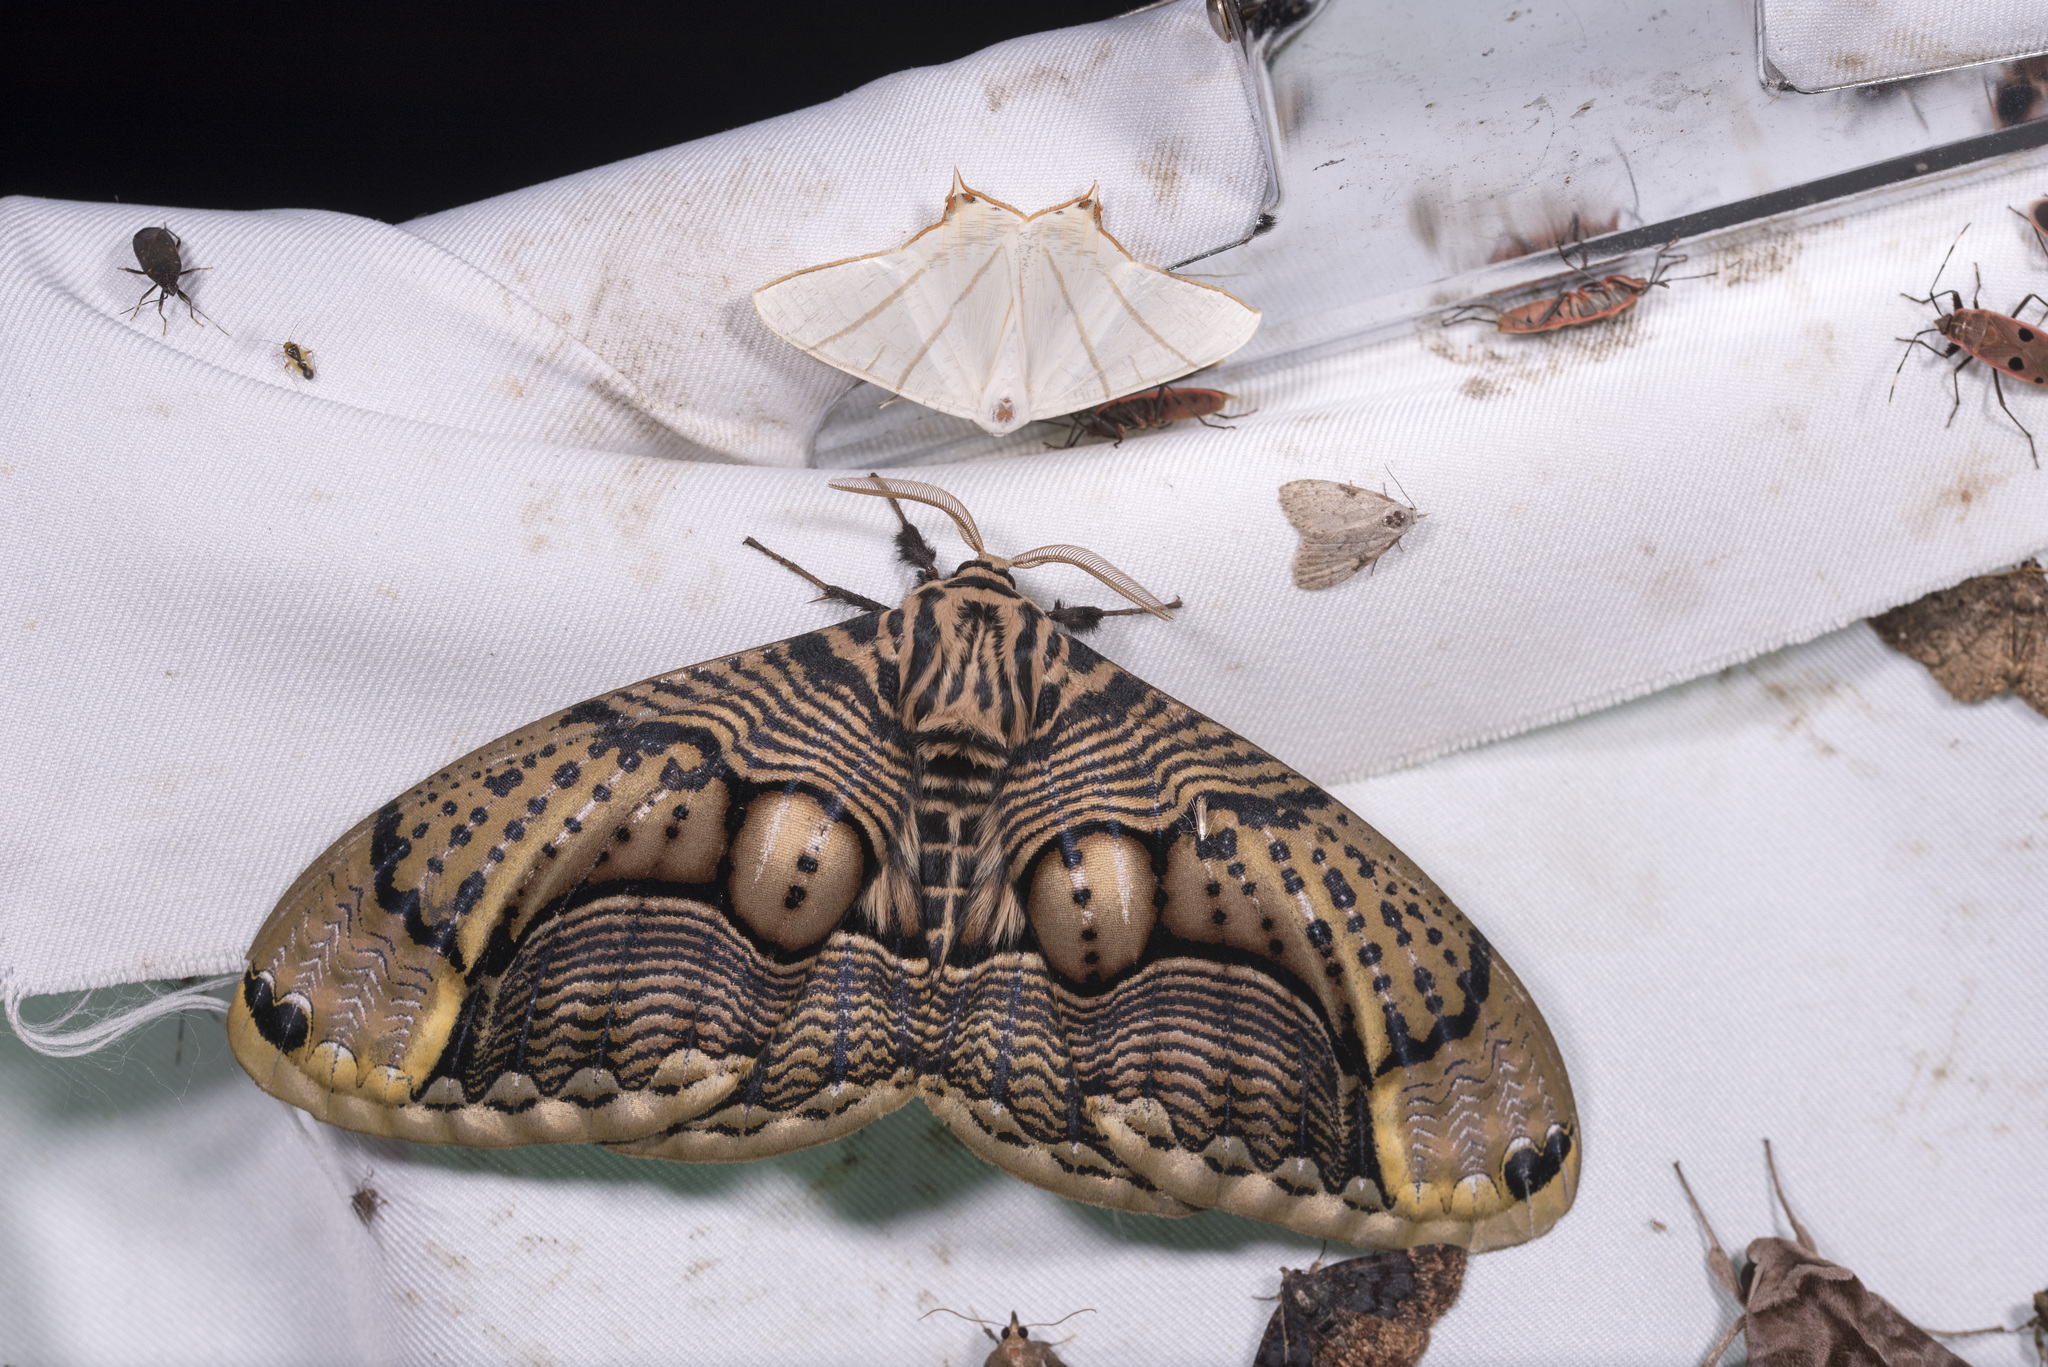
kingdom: Animalia
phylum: Arthropoda
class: Insecta
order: Lepidoptera
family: Brahmaeidae
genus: Brahmaea
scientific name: Brahmaea wallichii
